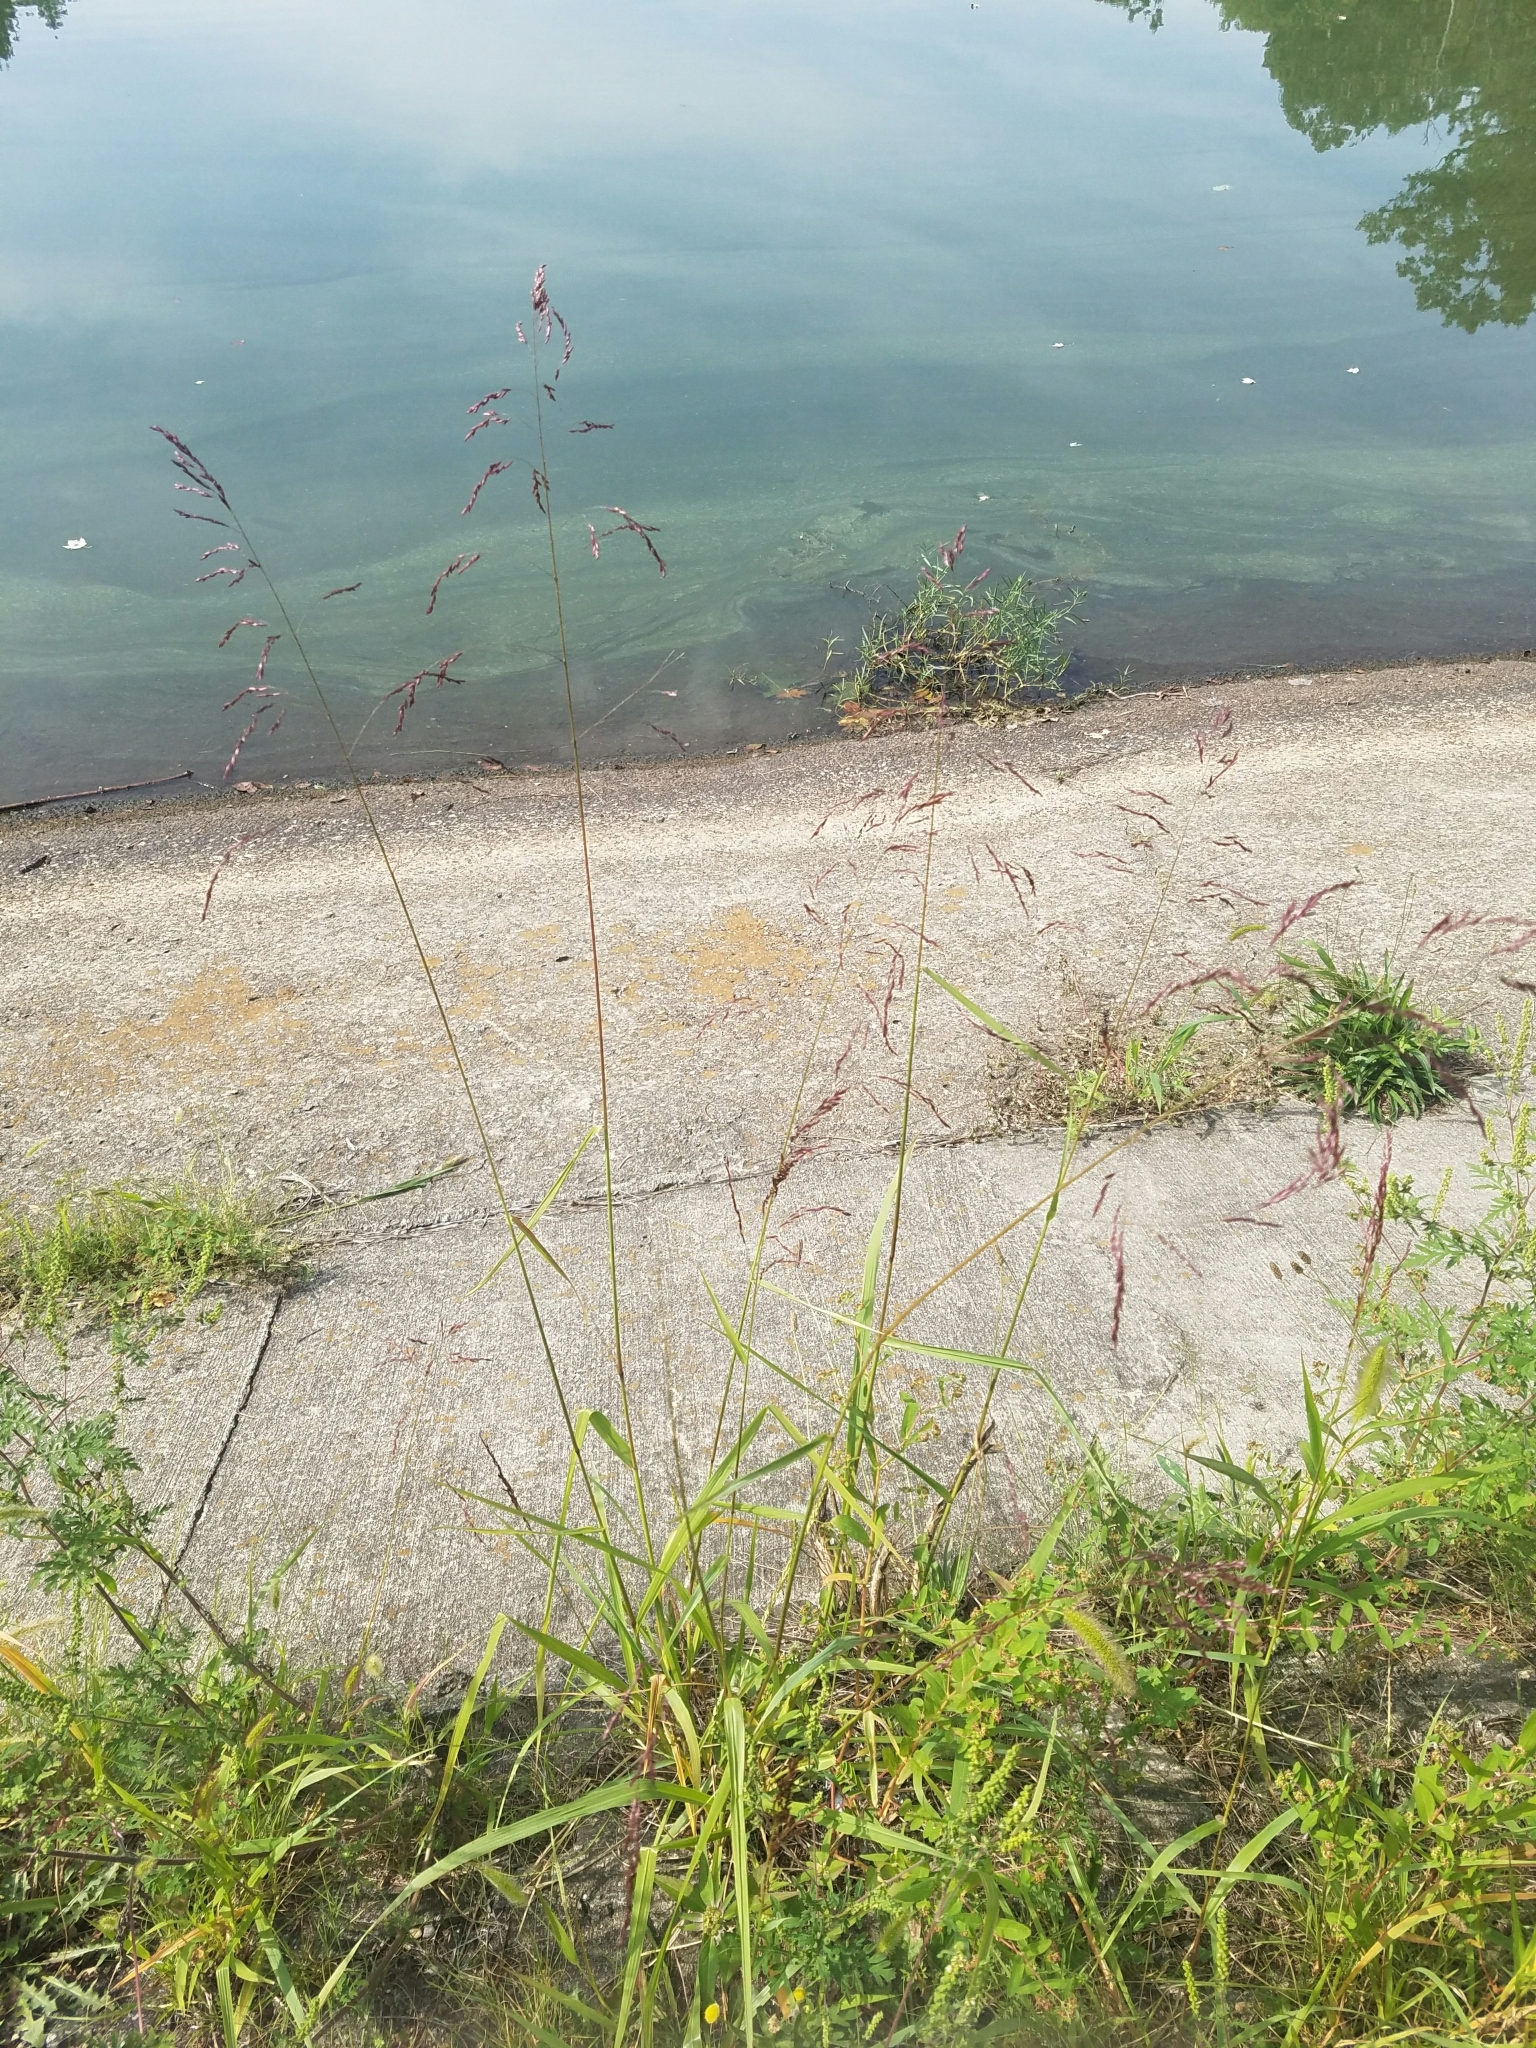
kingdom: Plantae
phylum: Tracheophyta
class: Liliopsida
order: Poales
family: Poaceae
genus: Tridens
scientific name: Tridens flavus
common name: Purpletop
